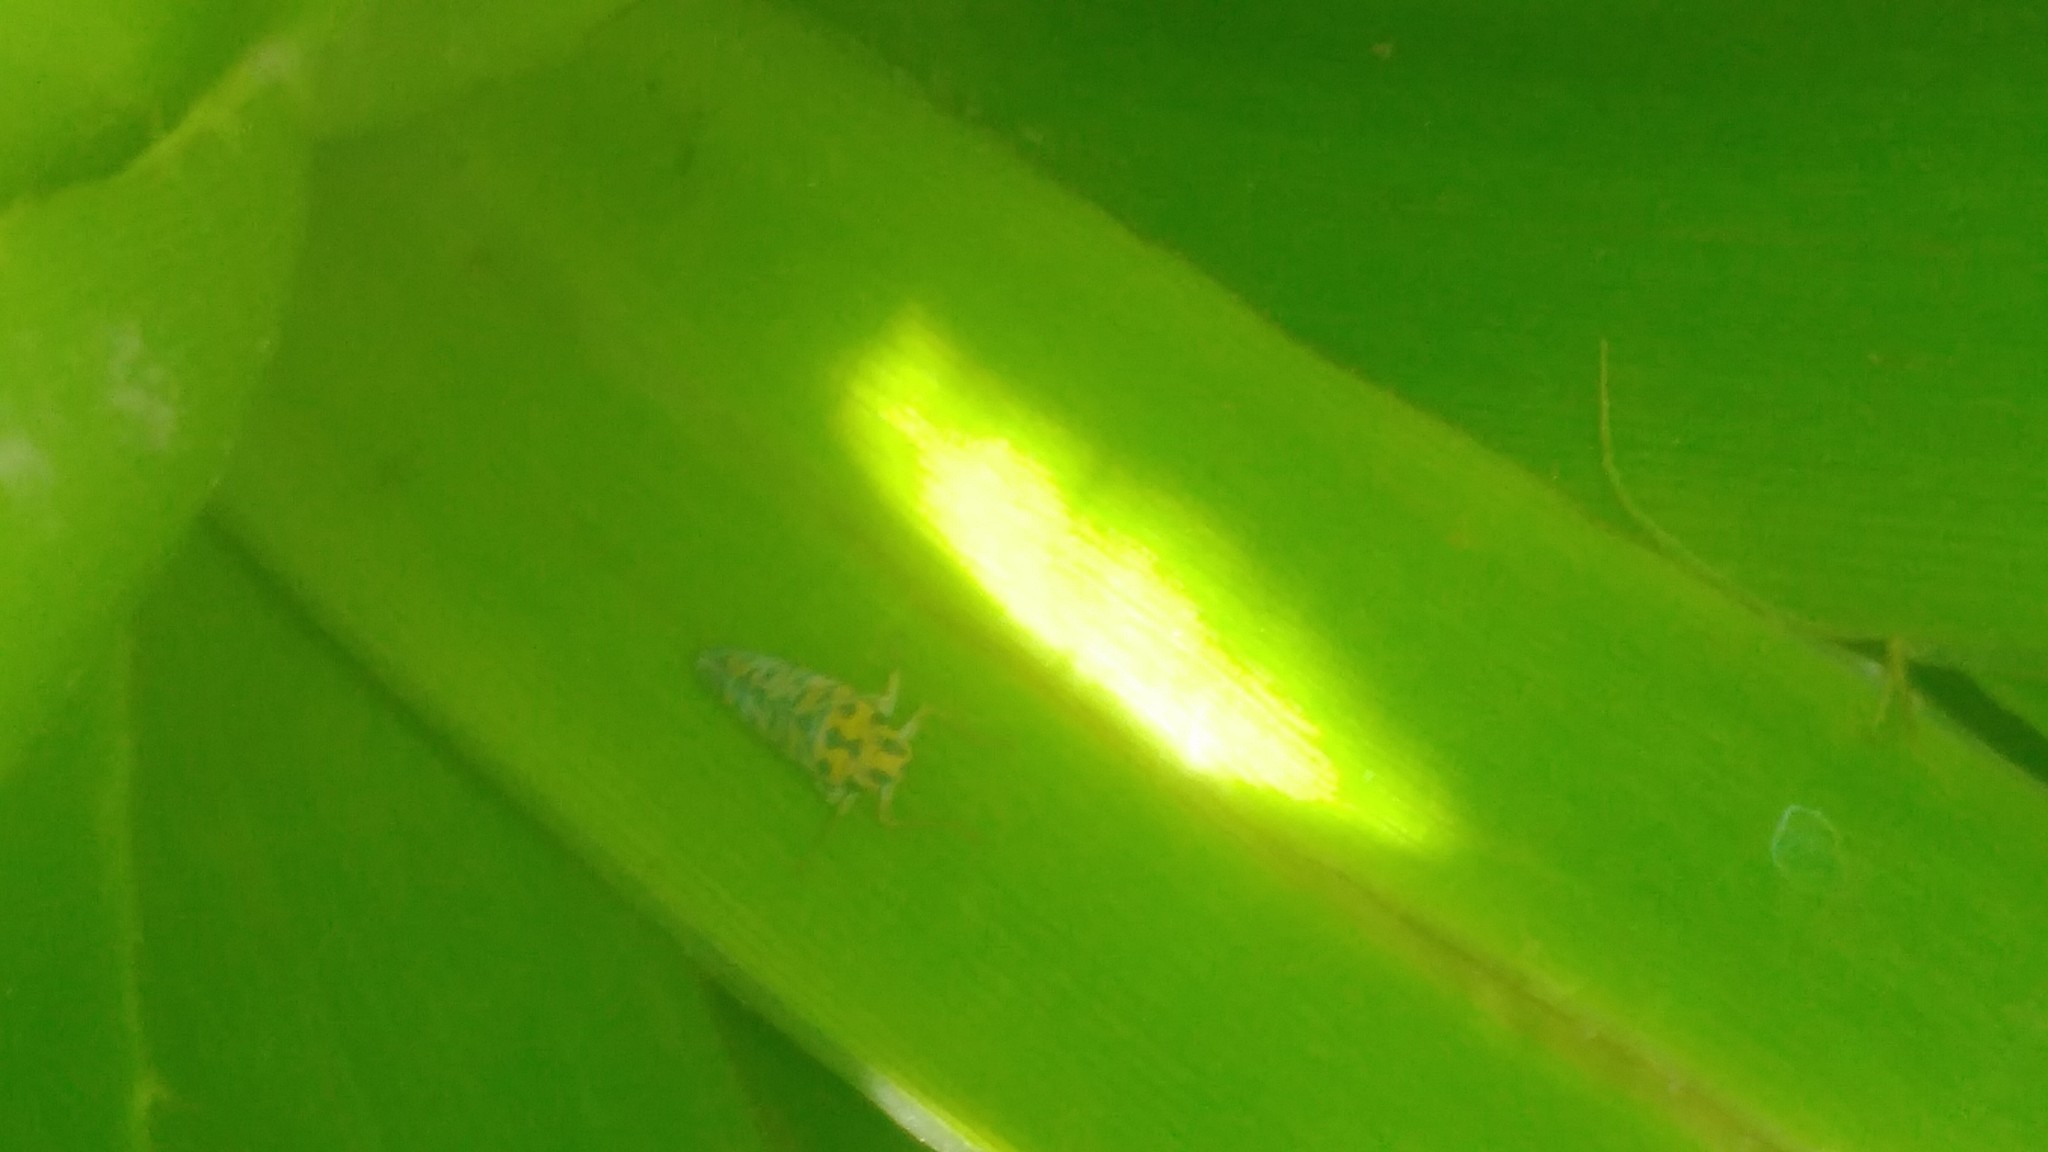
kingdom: Animalia
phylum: Arthropoda
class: Insecta
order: Hemiptera
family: Cicadellidae
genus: Pawiloma
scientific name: Pawiloma victima
